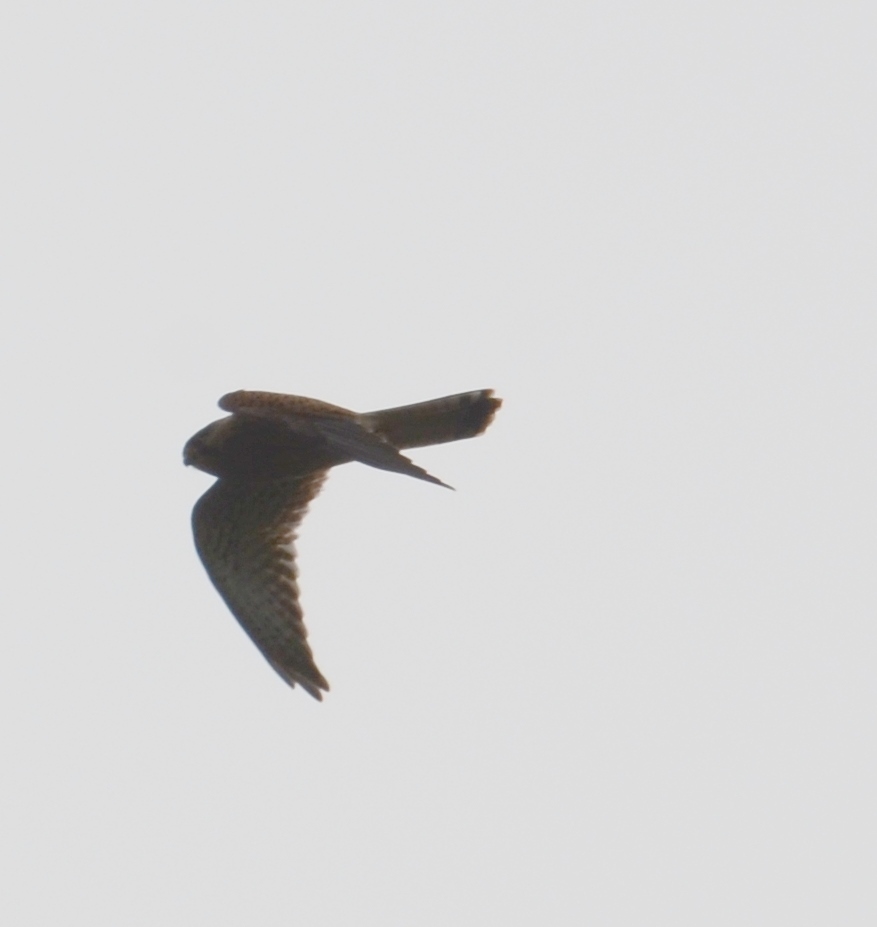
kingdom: Animalia
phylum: Chordata
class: Aves
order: Falconiformes
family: Falconidae
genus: Falco
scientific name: Falco tinnunculus
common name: Common kestrel
